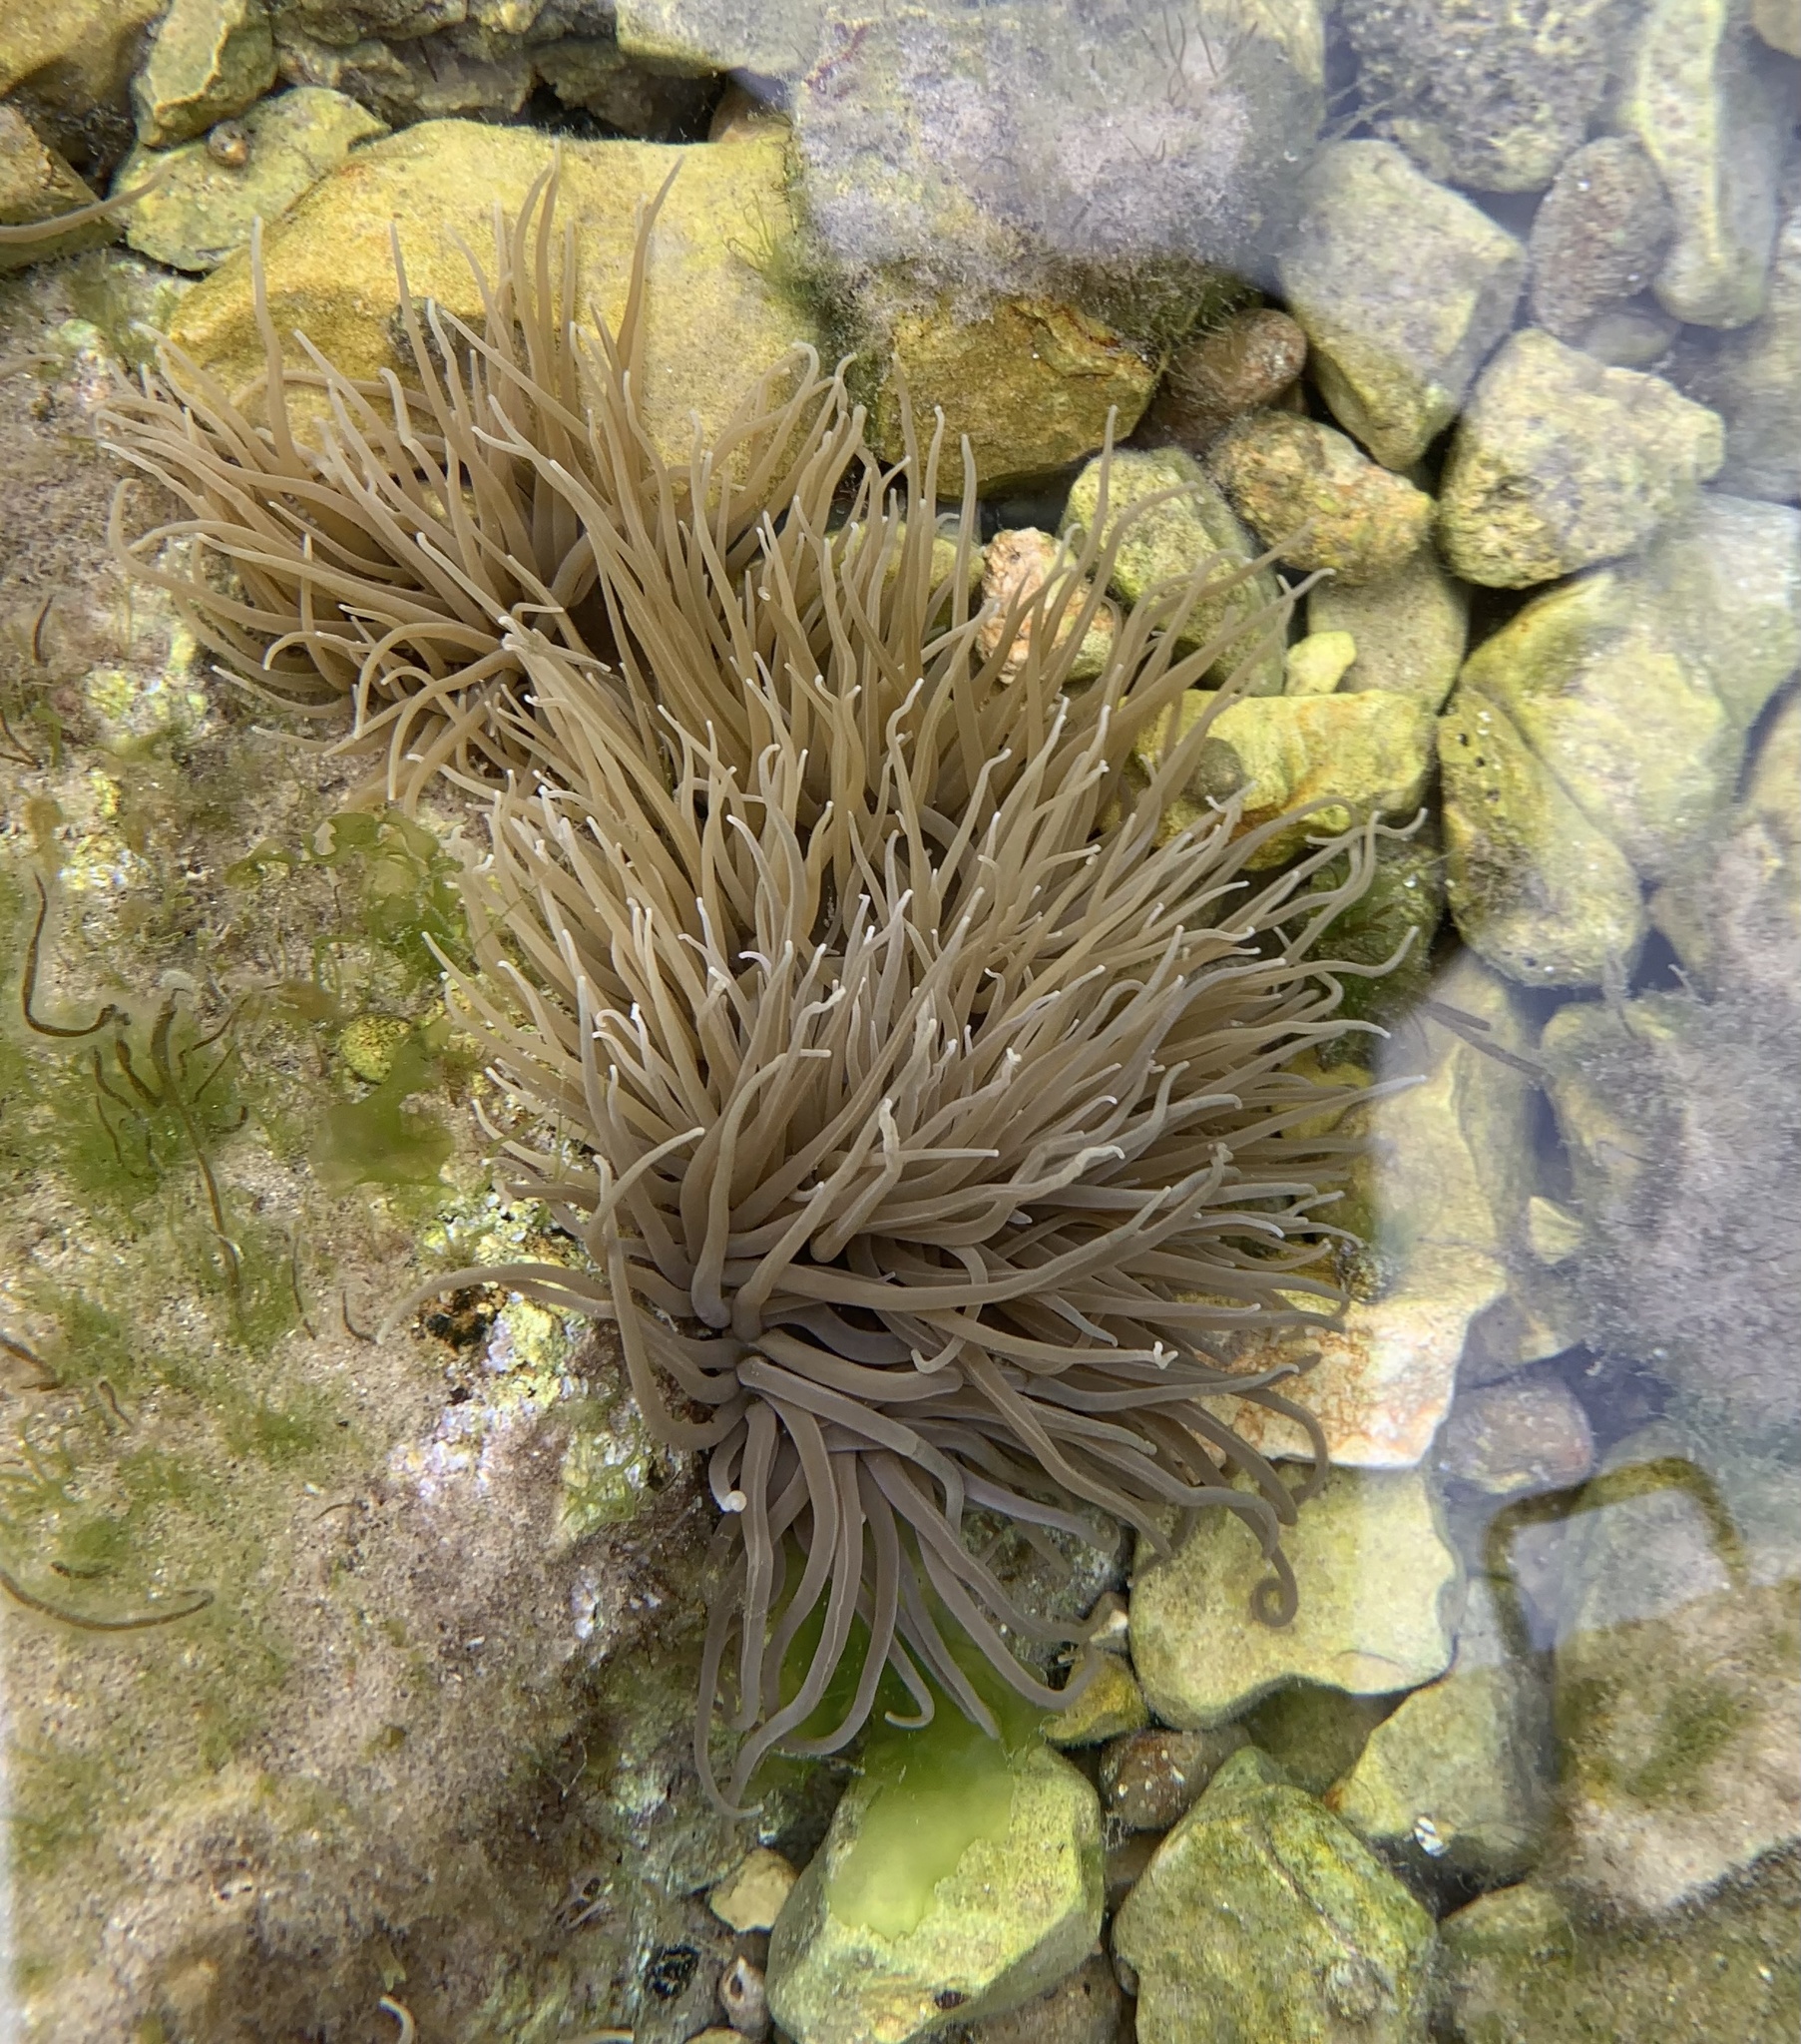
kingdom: Animalia
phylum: Cnidaria
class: Anthozoa
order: Actiniaria
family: Actiniidae
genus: Anemonia
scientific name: Anemonia viridis
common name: Snakelocks anemone
